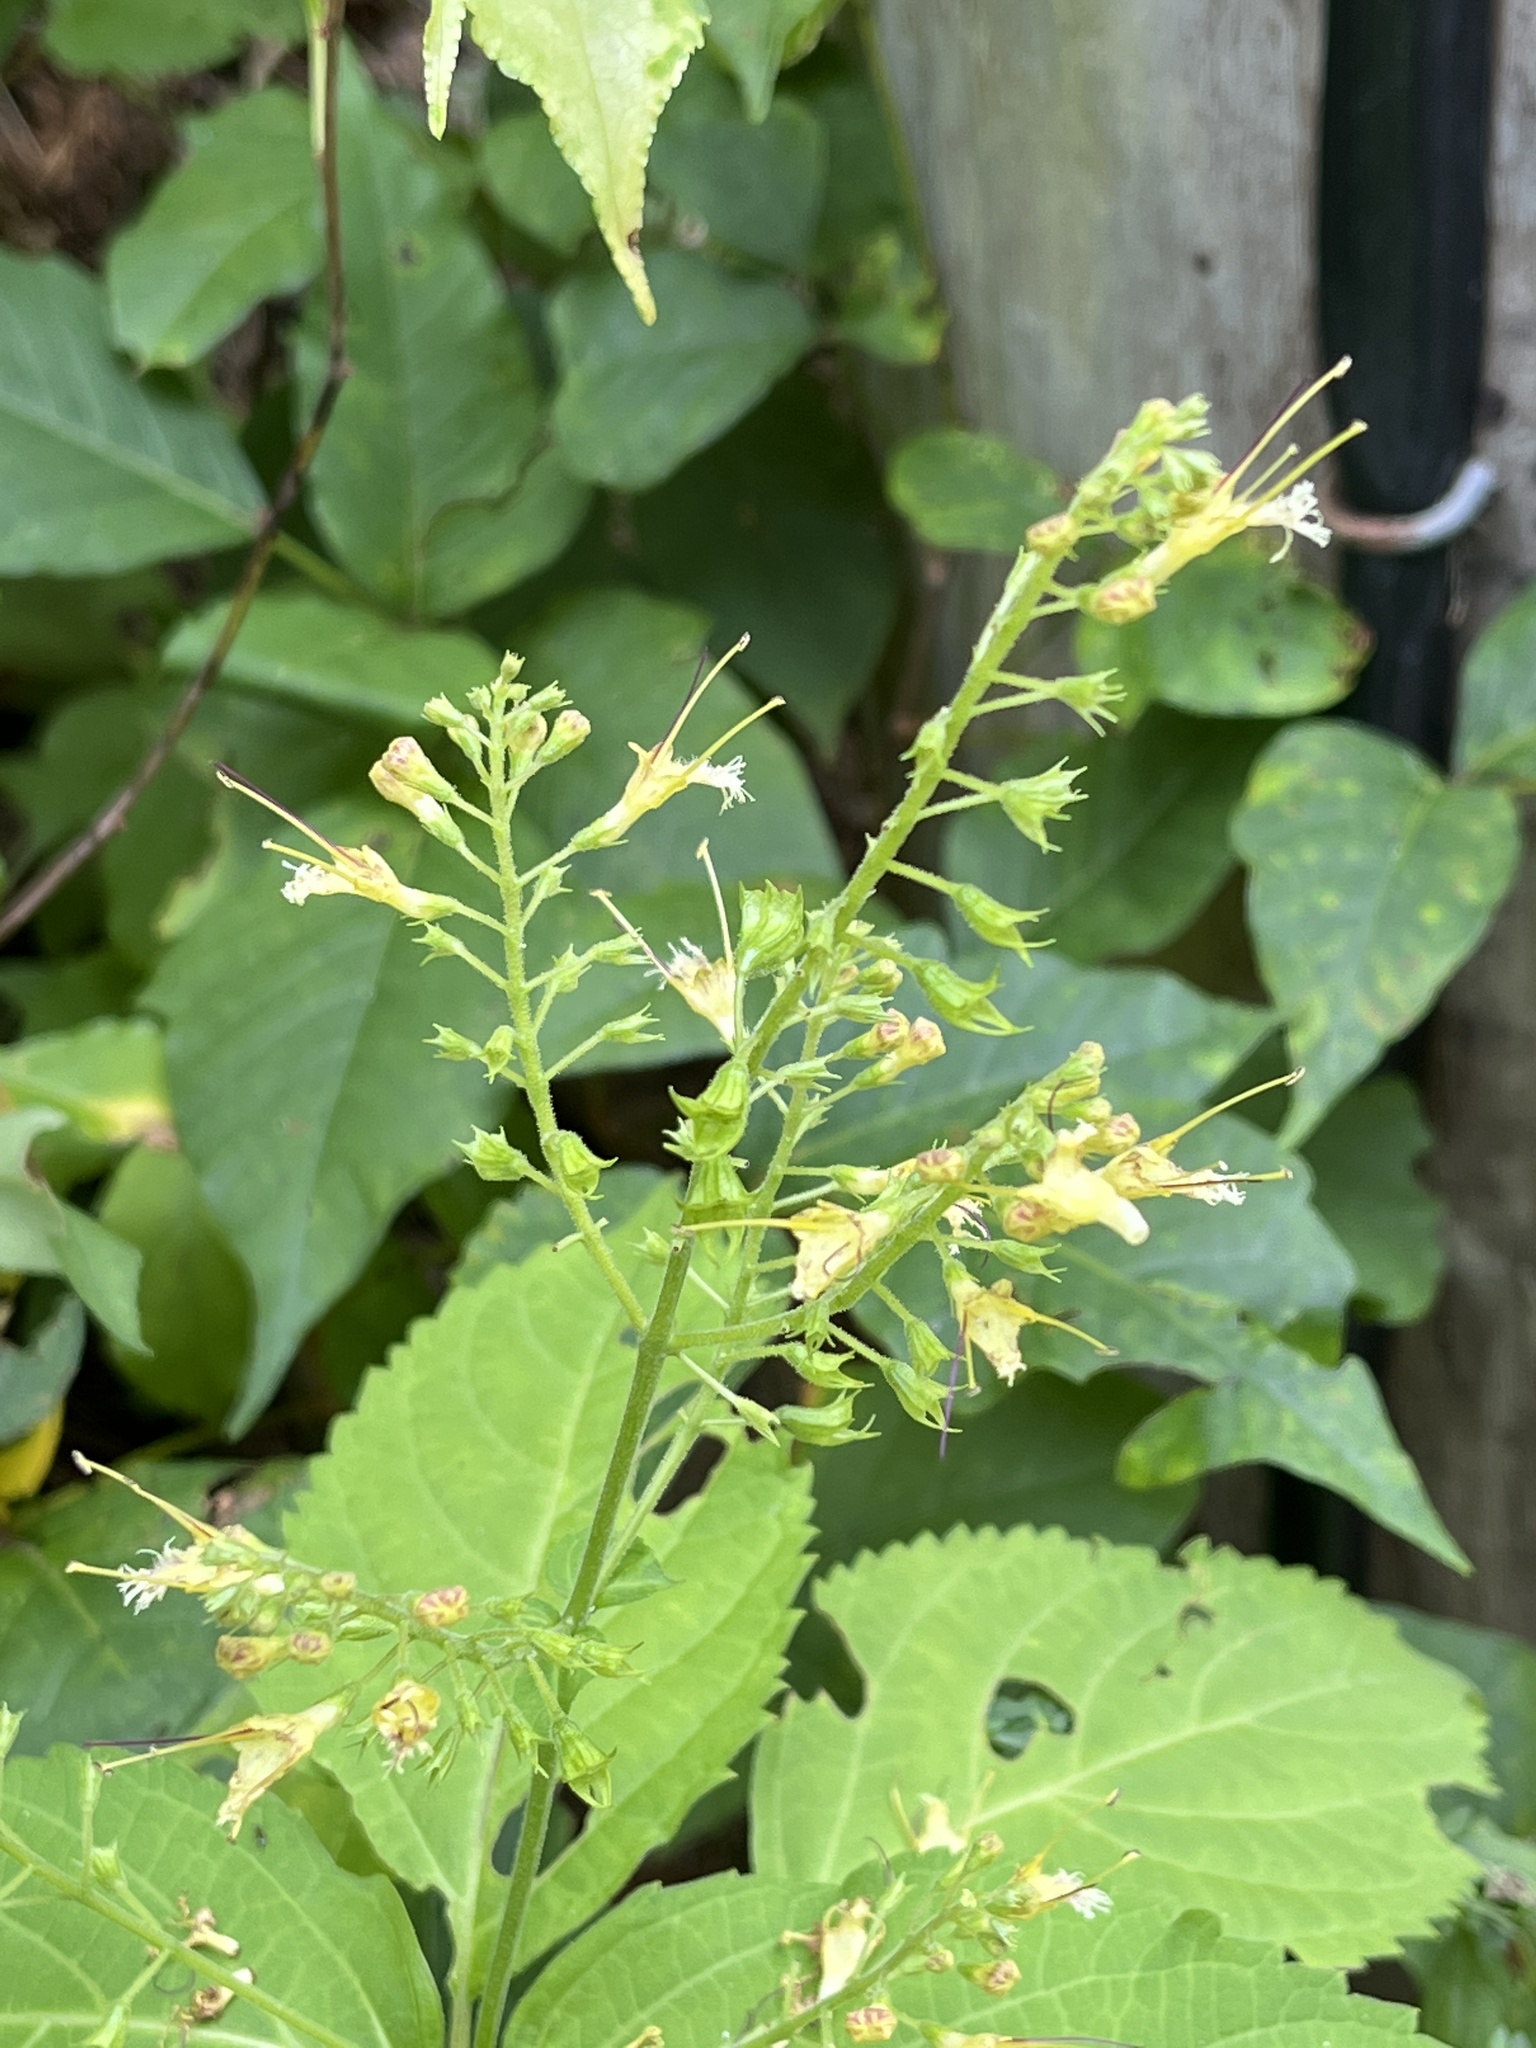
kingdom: Plantae
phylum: Tracheophyta
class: Magnoliopsida
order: Lamiales
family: Lamiaceae
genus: Collinsonia
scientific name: Collinsonia canadensis
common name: Northern horsebalm
